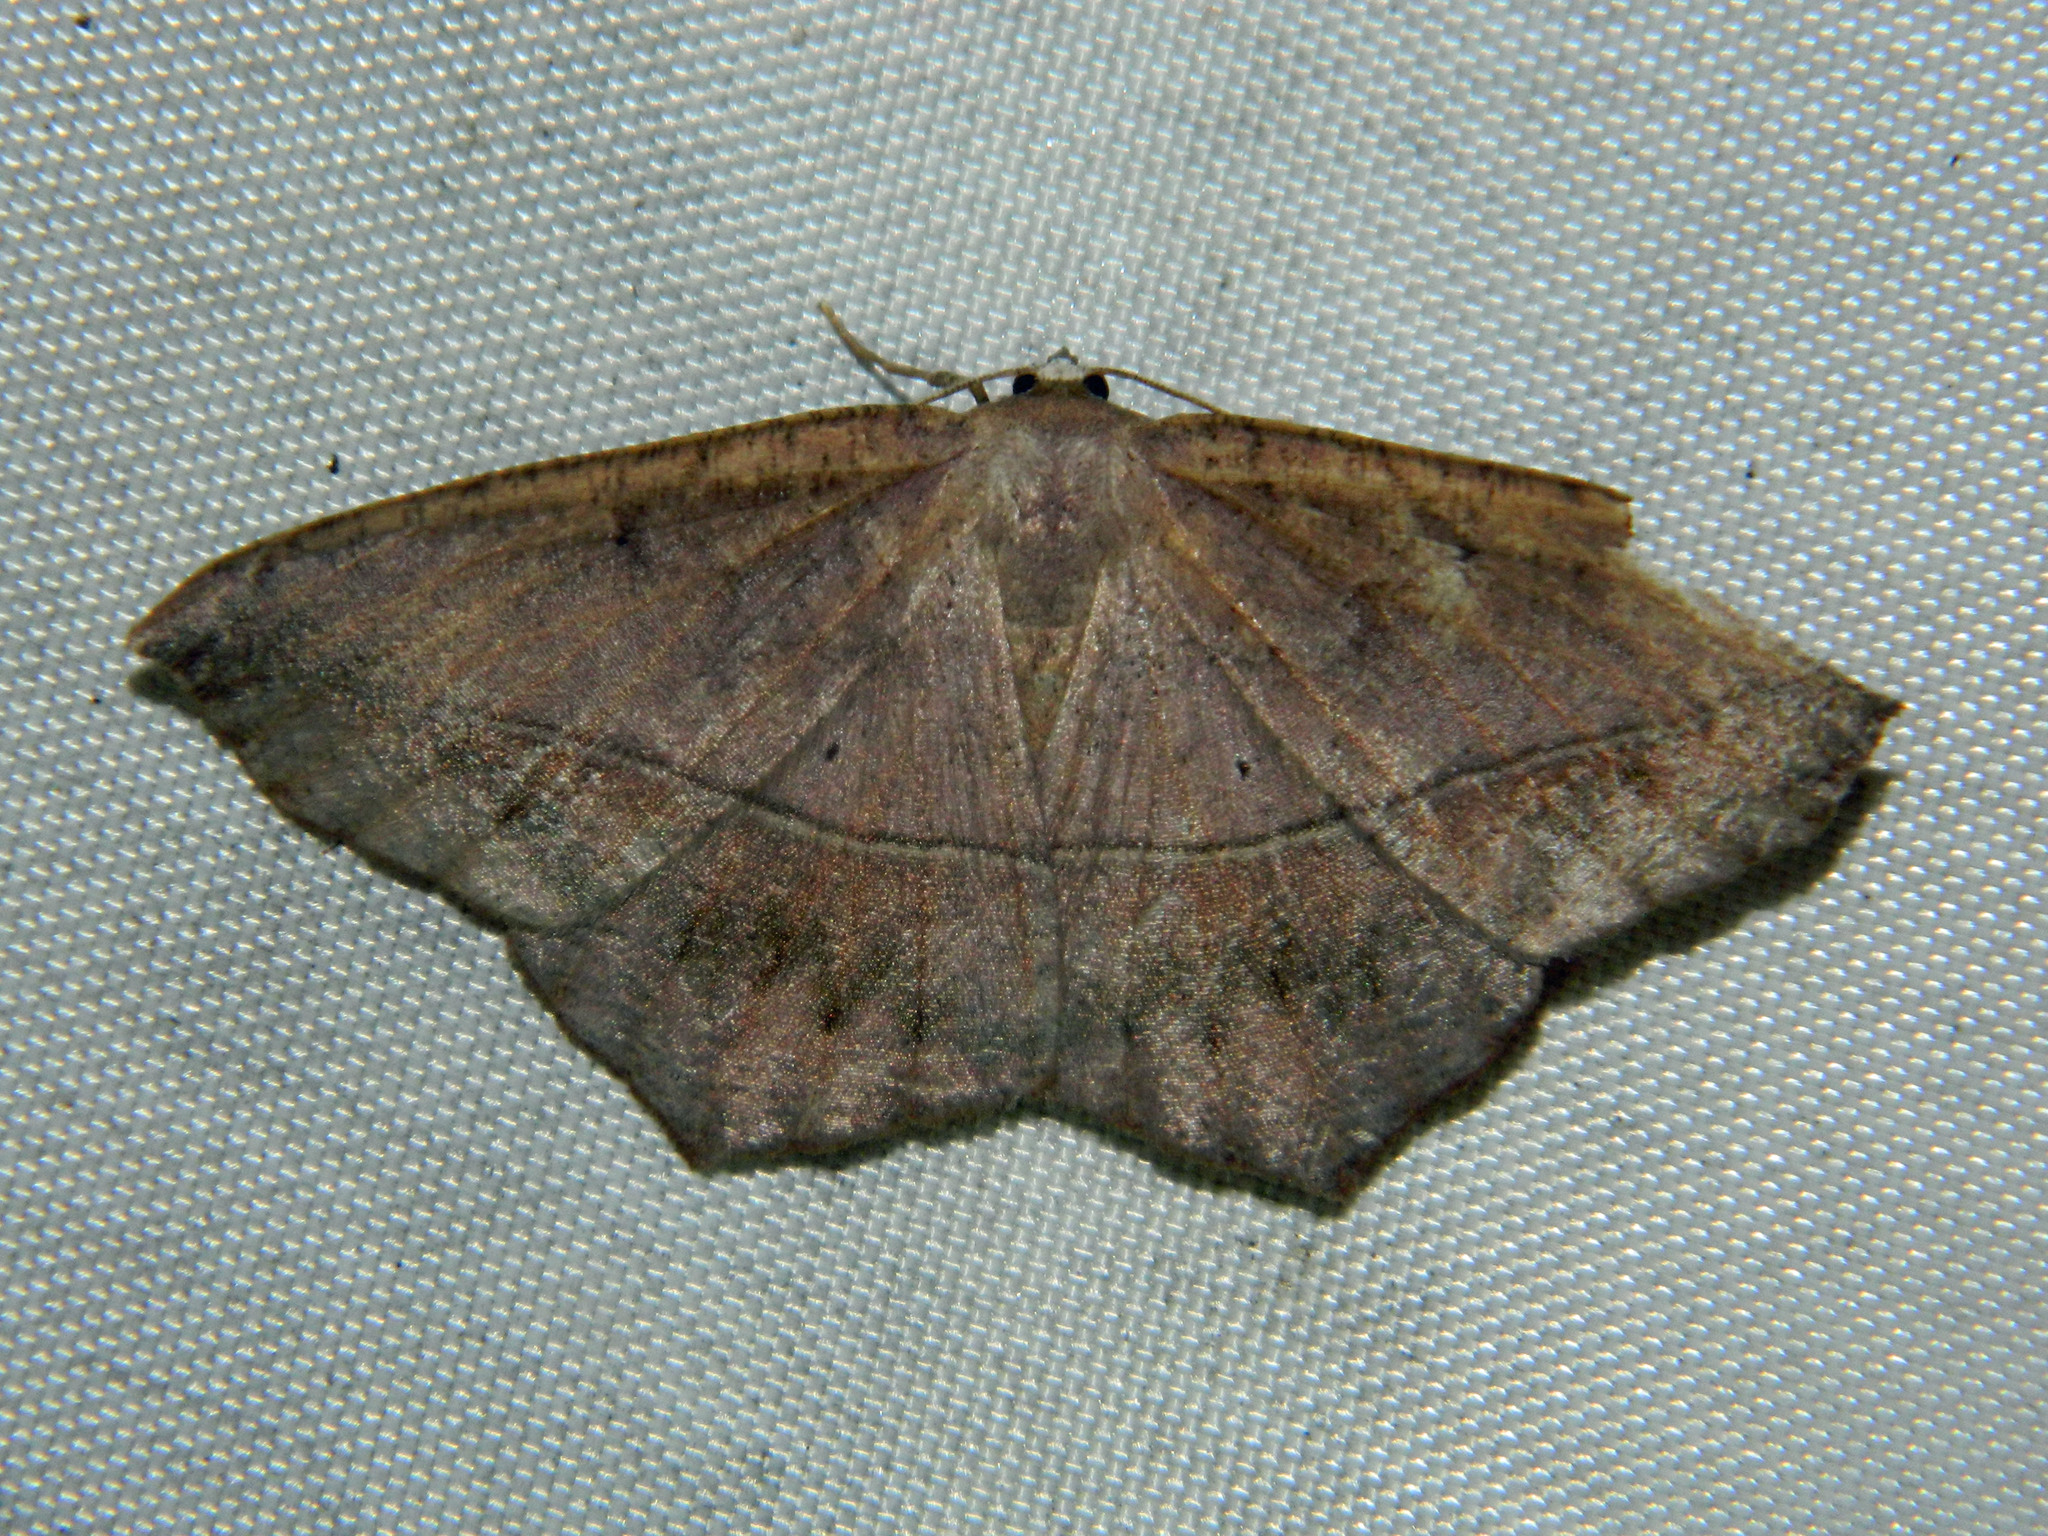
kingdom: Animalia
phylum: Arthropoda
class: Insecta
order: Lepidoptera
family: Geometridae
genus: Prochoerodes
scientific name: Prochoerodes lineola
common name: Large maple spanworm
